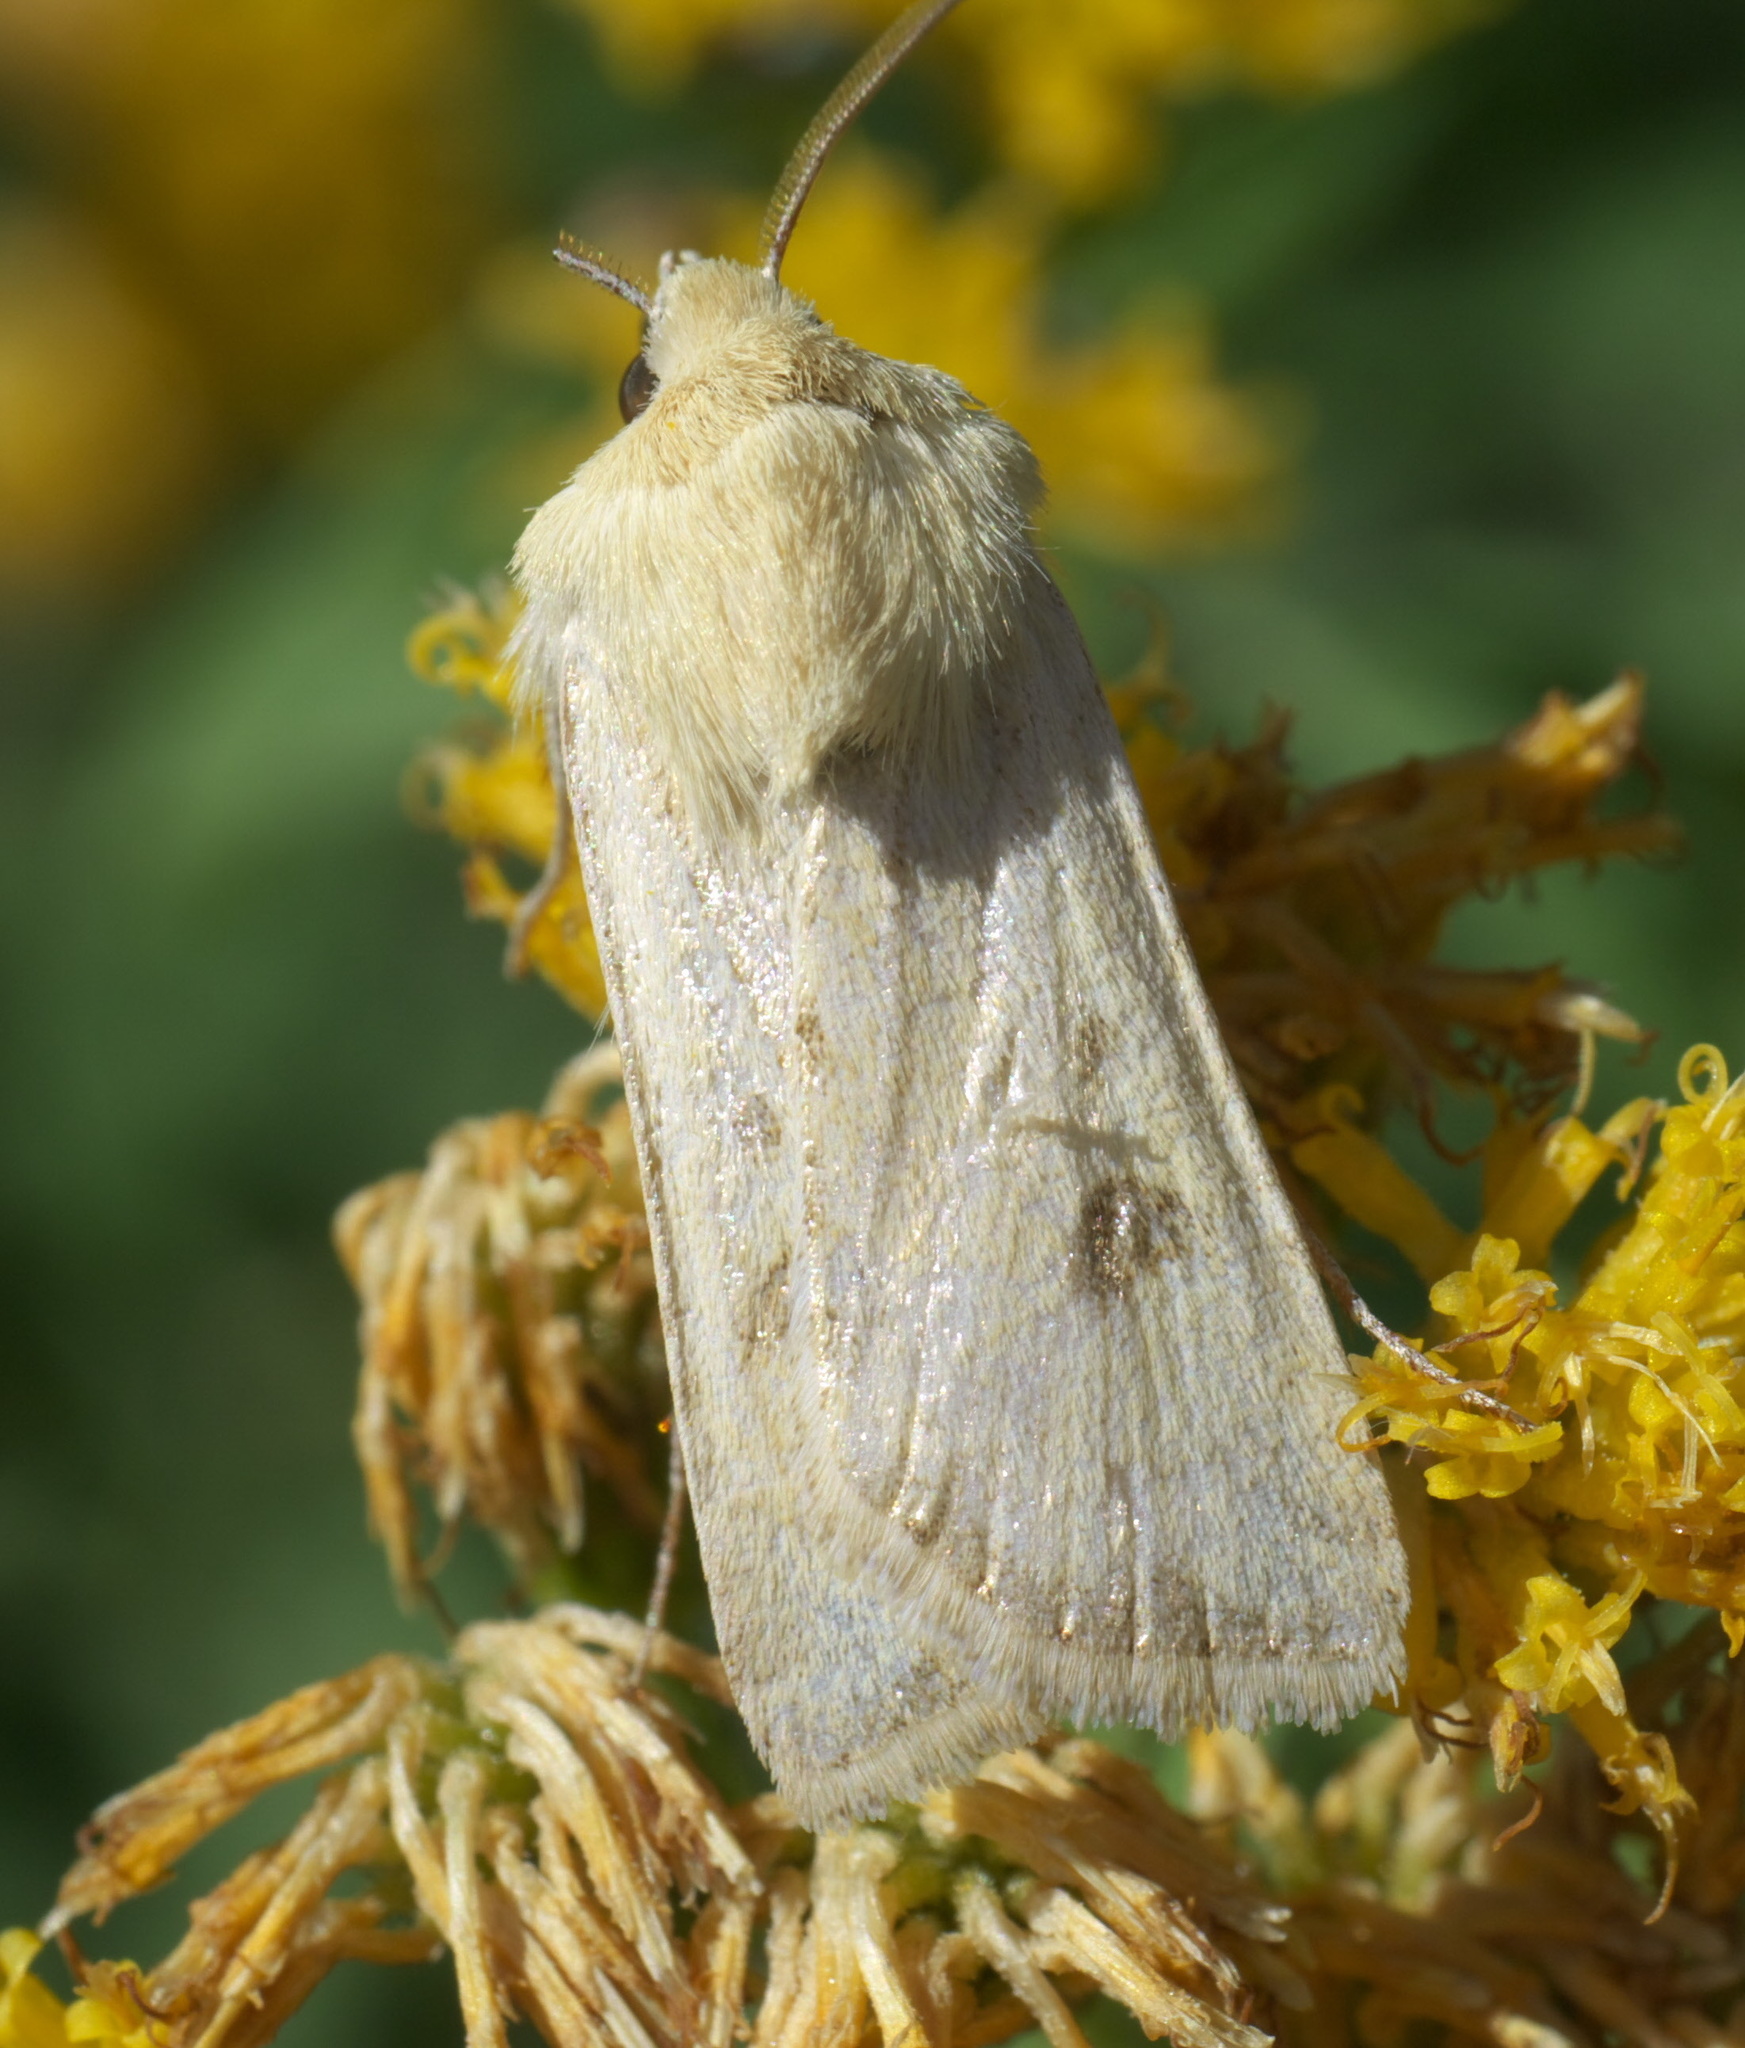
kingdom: Animalia
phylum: Arthropoda
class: Insecta
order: Lepidoptera
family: Noctuidae
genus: Euxoa
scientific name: Euxoa citricolor
